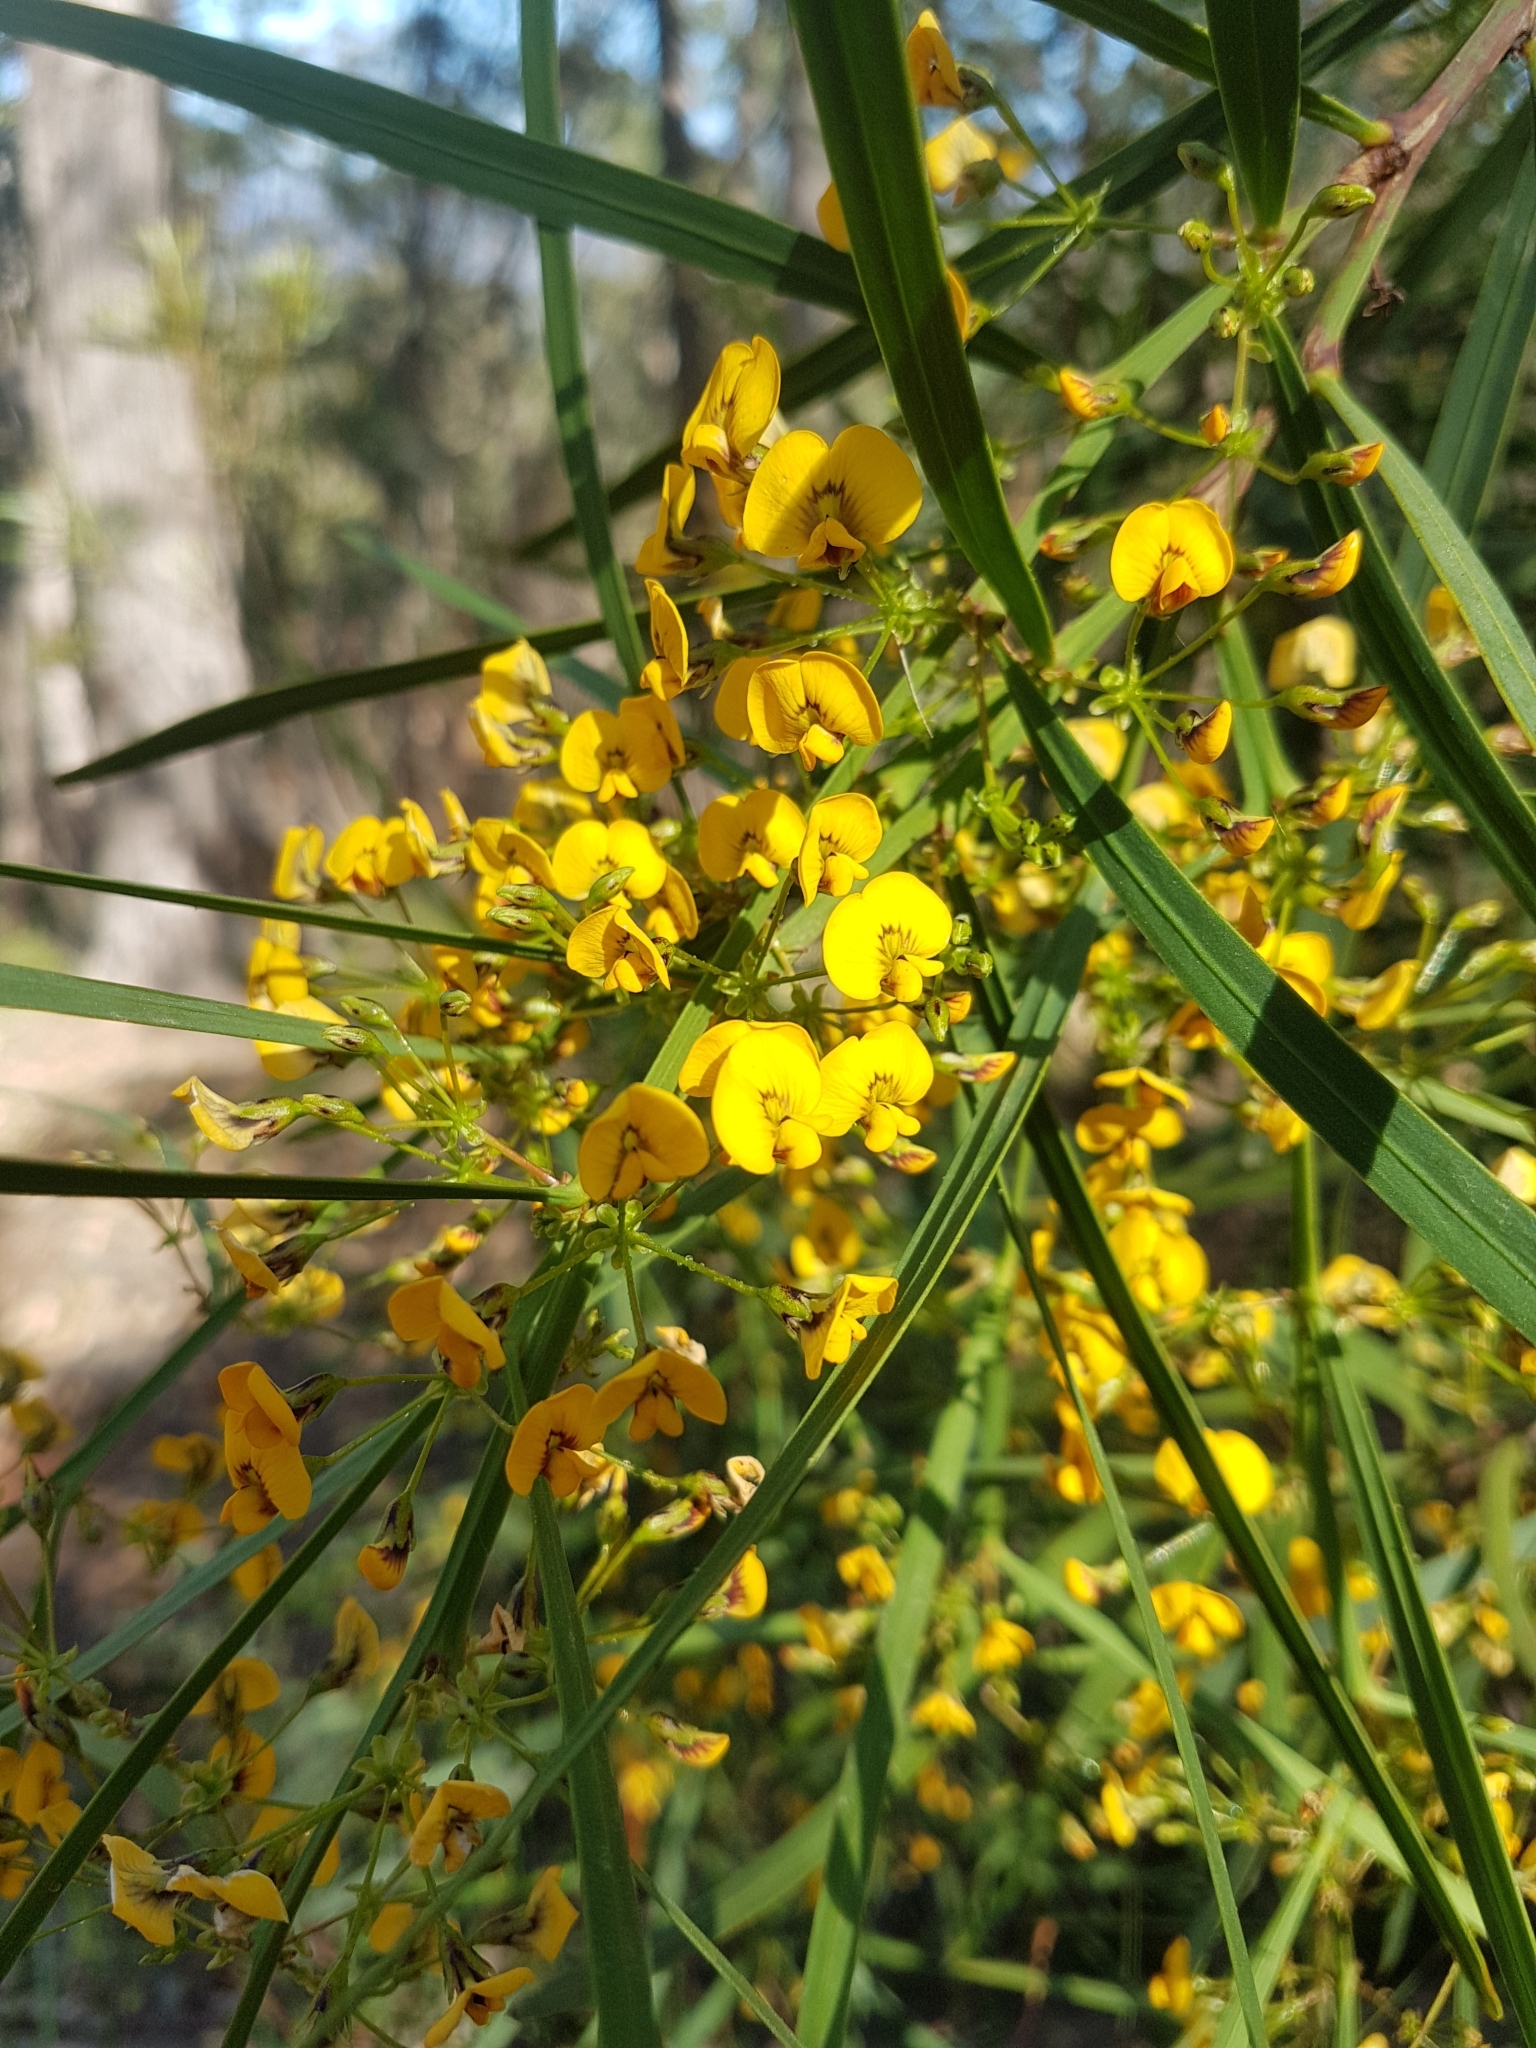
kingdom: Plantae
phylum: Tracheophyta
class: Magnoliopsida
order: Fabales
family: Fabaceae
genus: Daviesia
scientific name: Daviesia wyattiana
